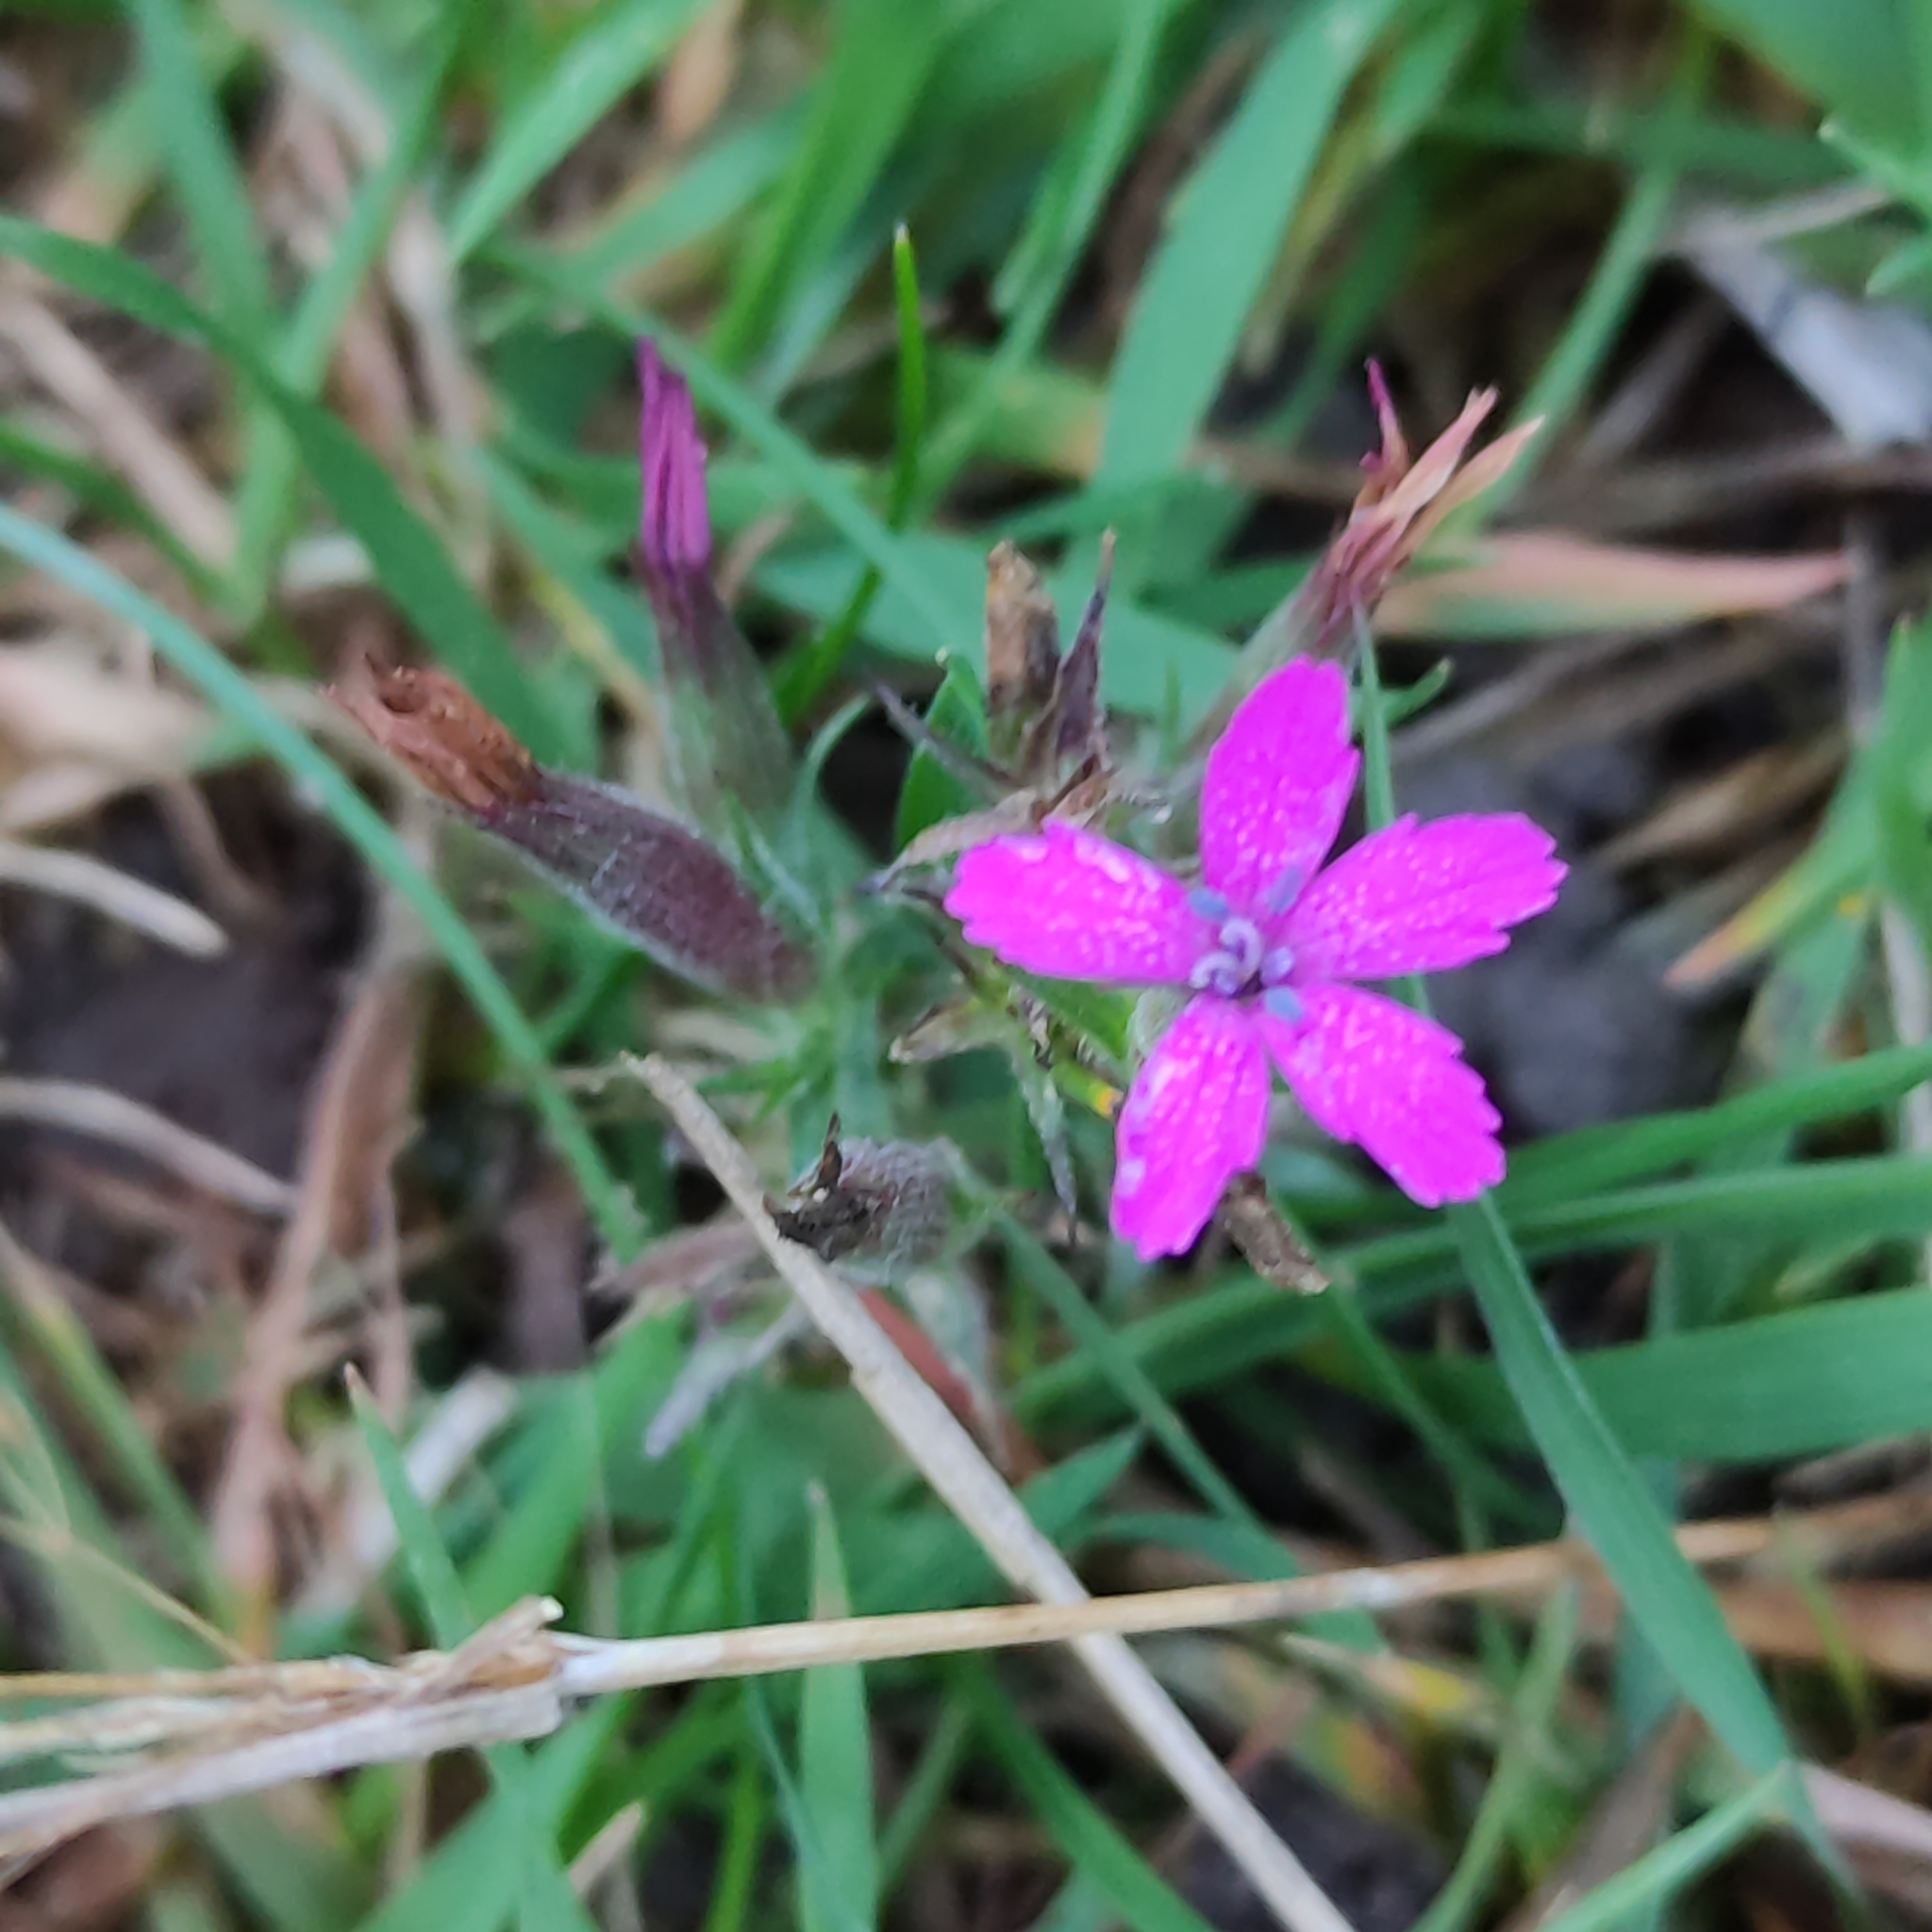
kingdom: Plantae
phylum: Tracheophyta
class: Magnoliopsida
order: Caryophyllales
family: Caryophyllaceae
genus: Dianthus
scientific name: Dianthus armeria
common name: Deptford pink
